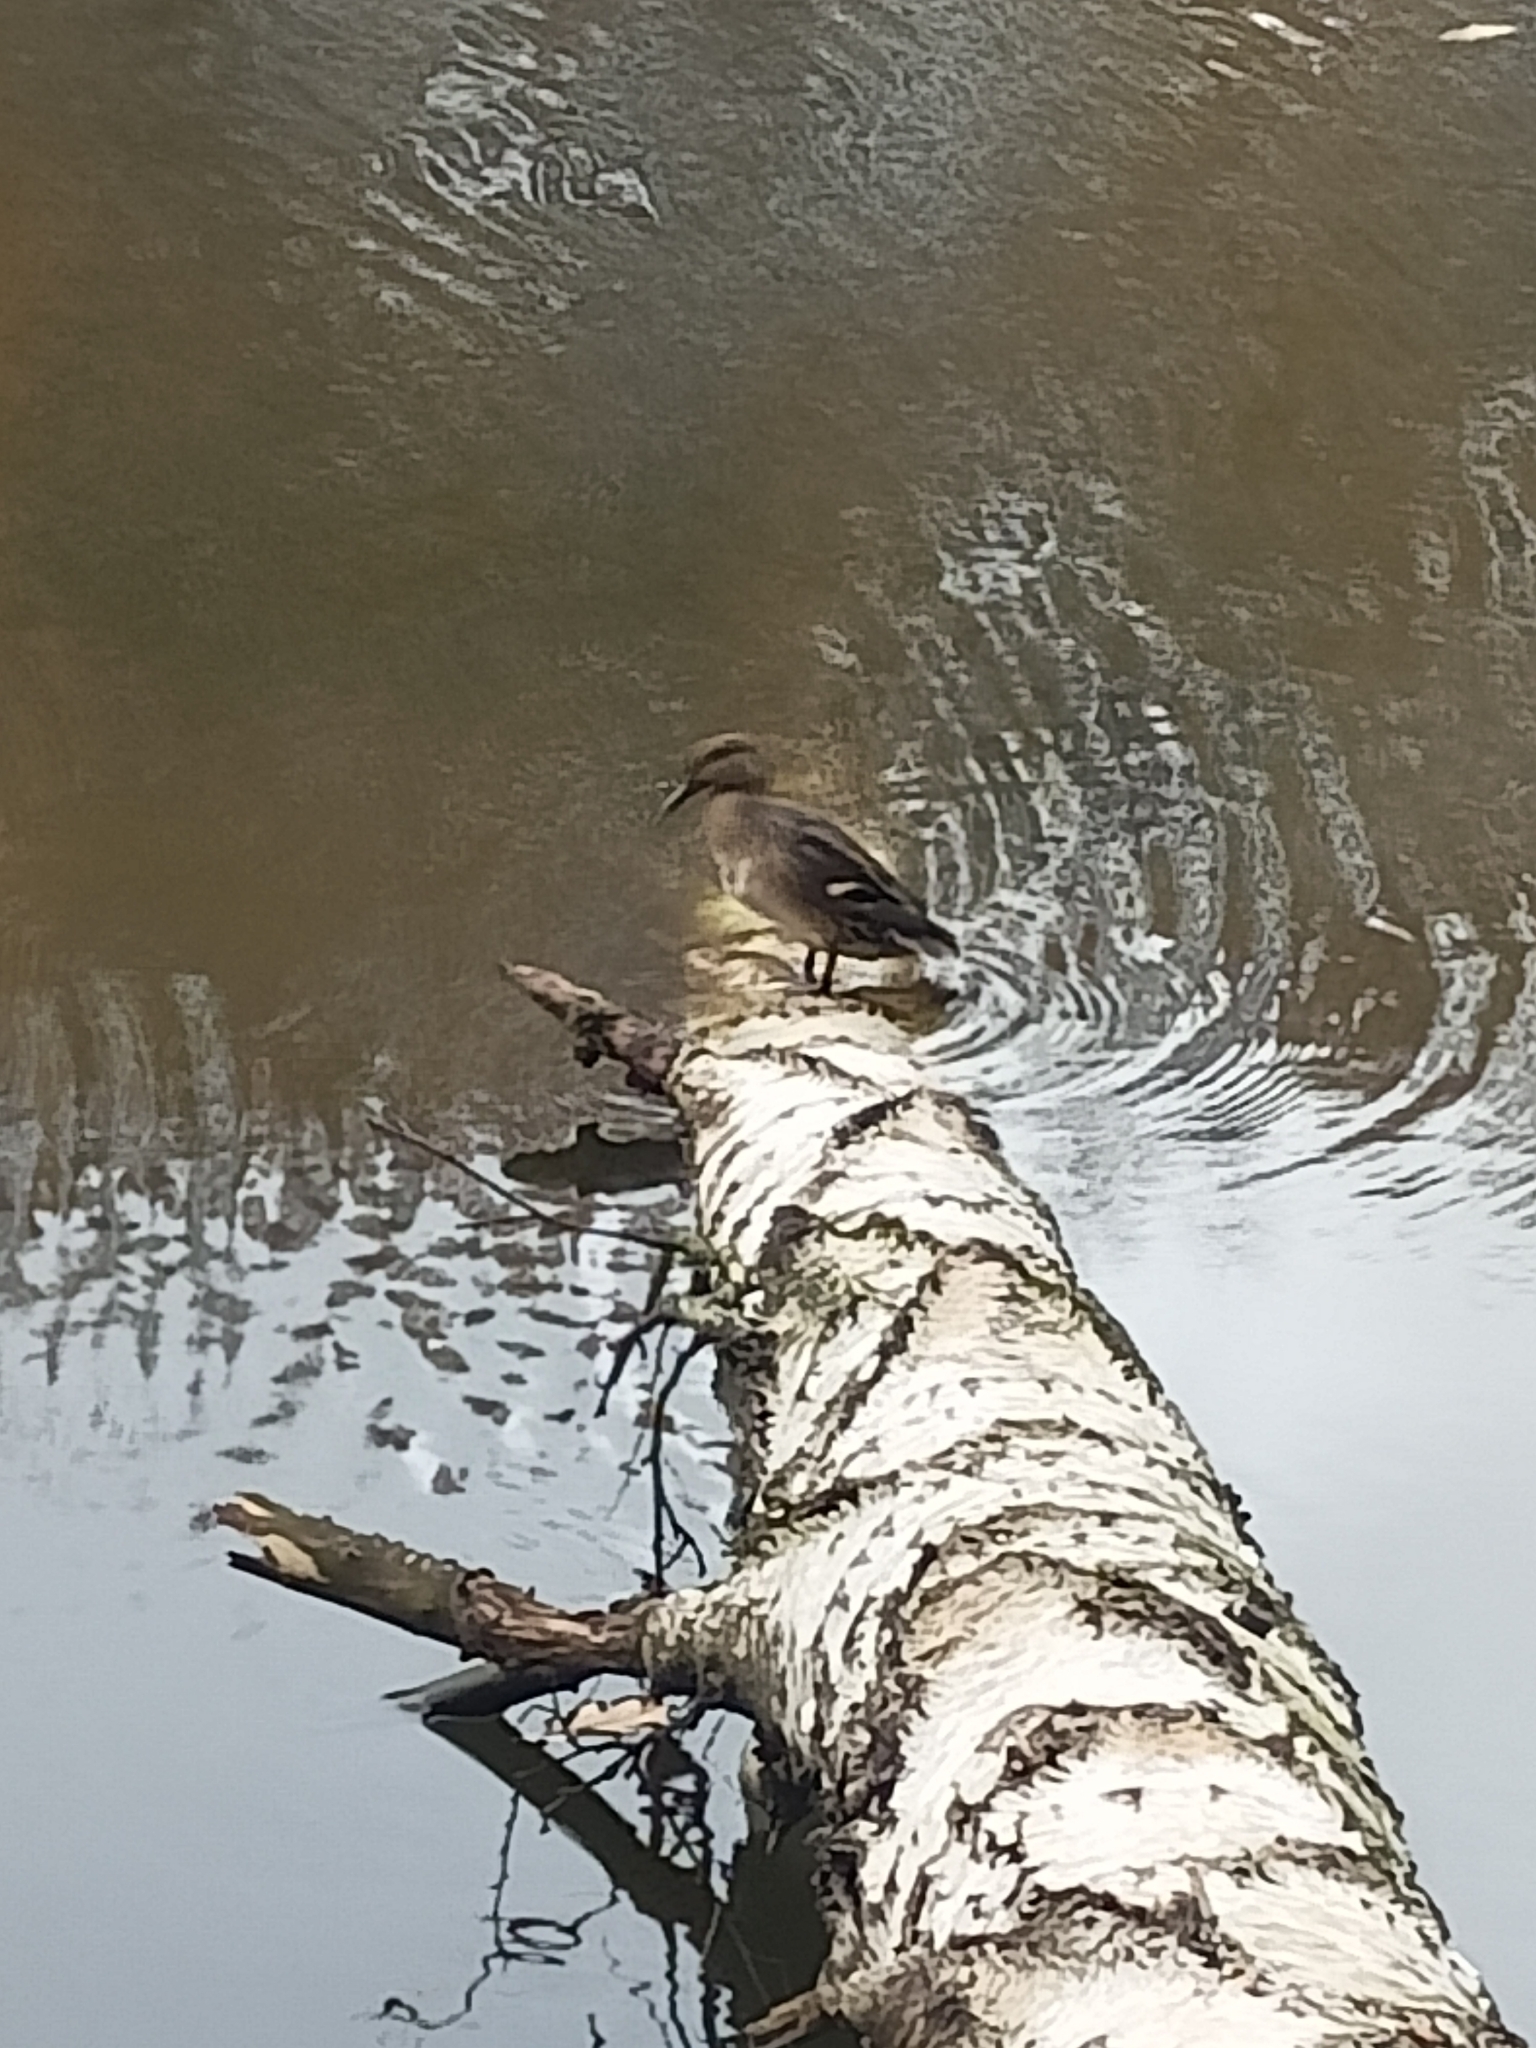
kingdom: Animalia
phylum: Chordata
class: Aves
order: Anseriformes
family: Anatidae
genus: Mareca
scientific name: Mareca strepera
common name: Gadwall
